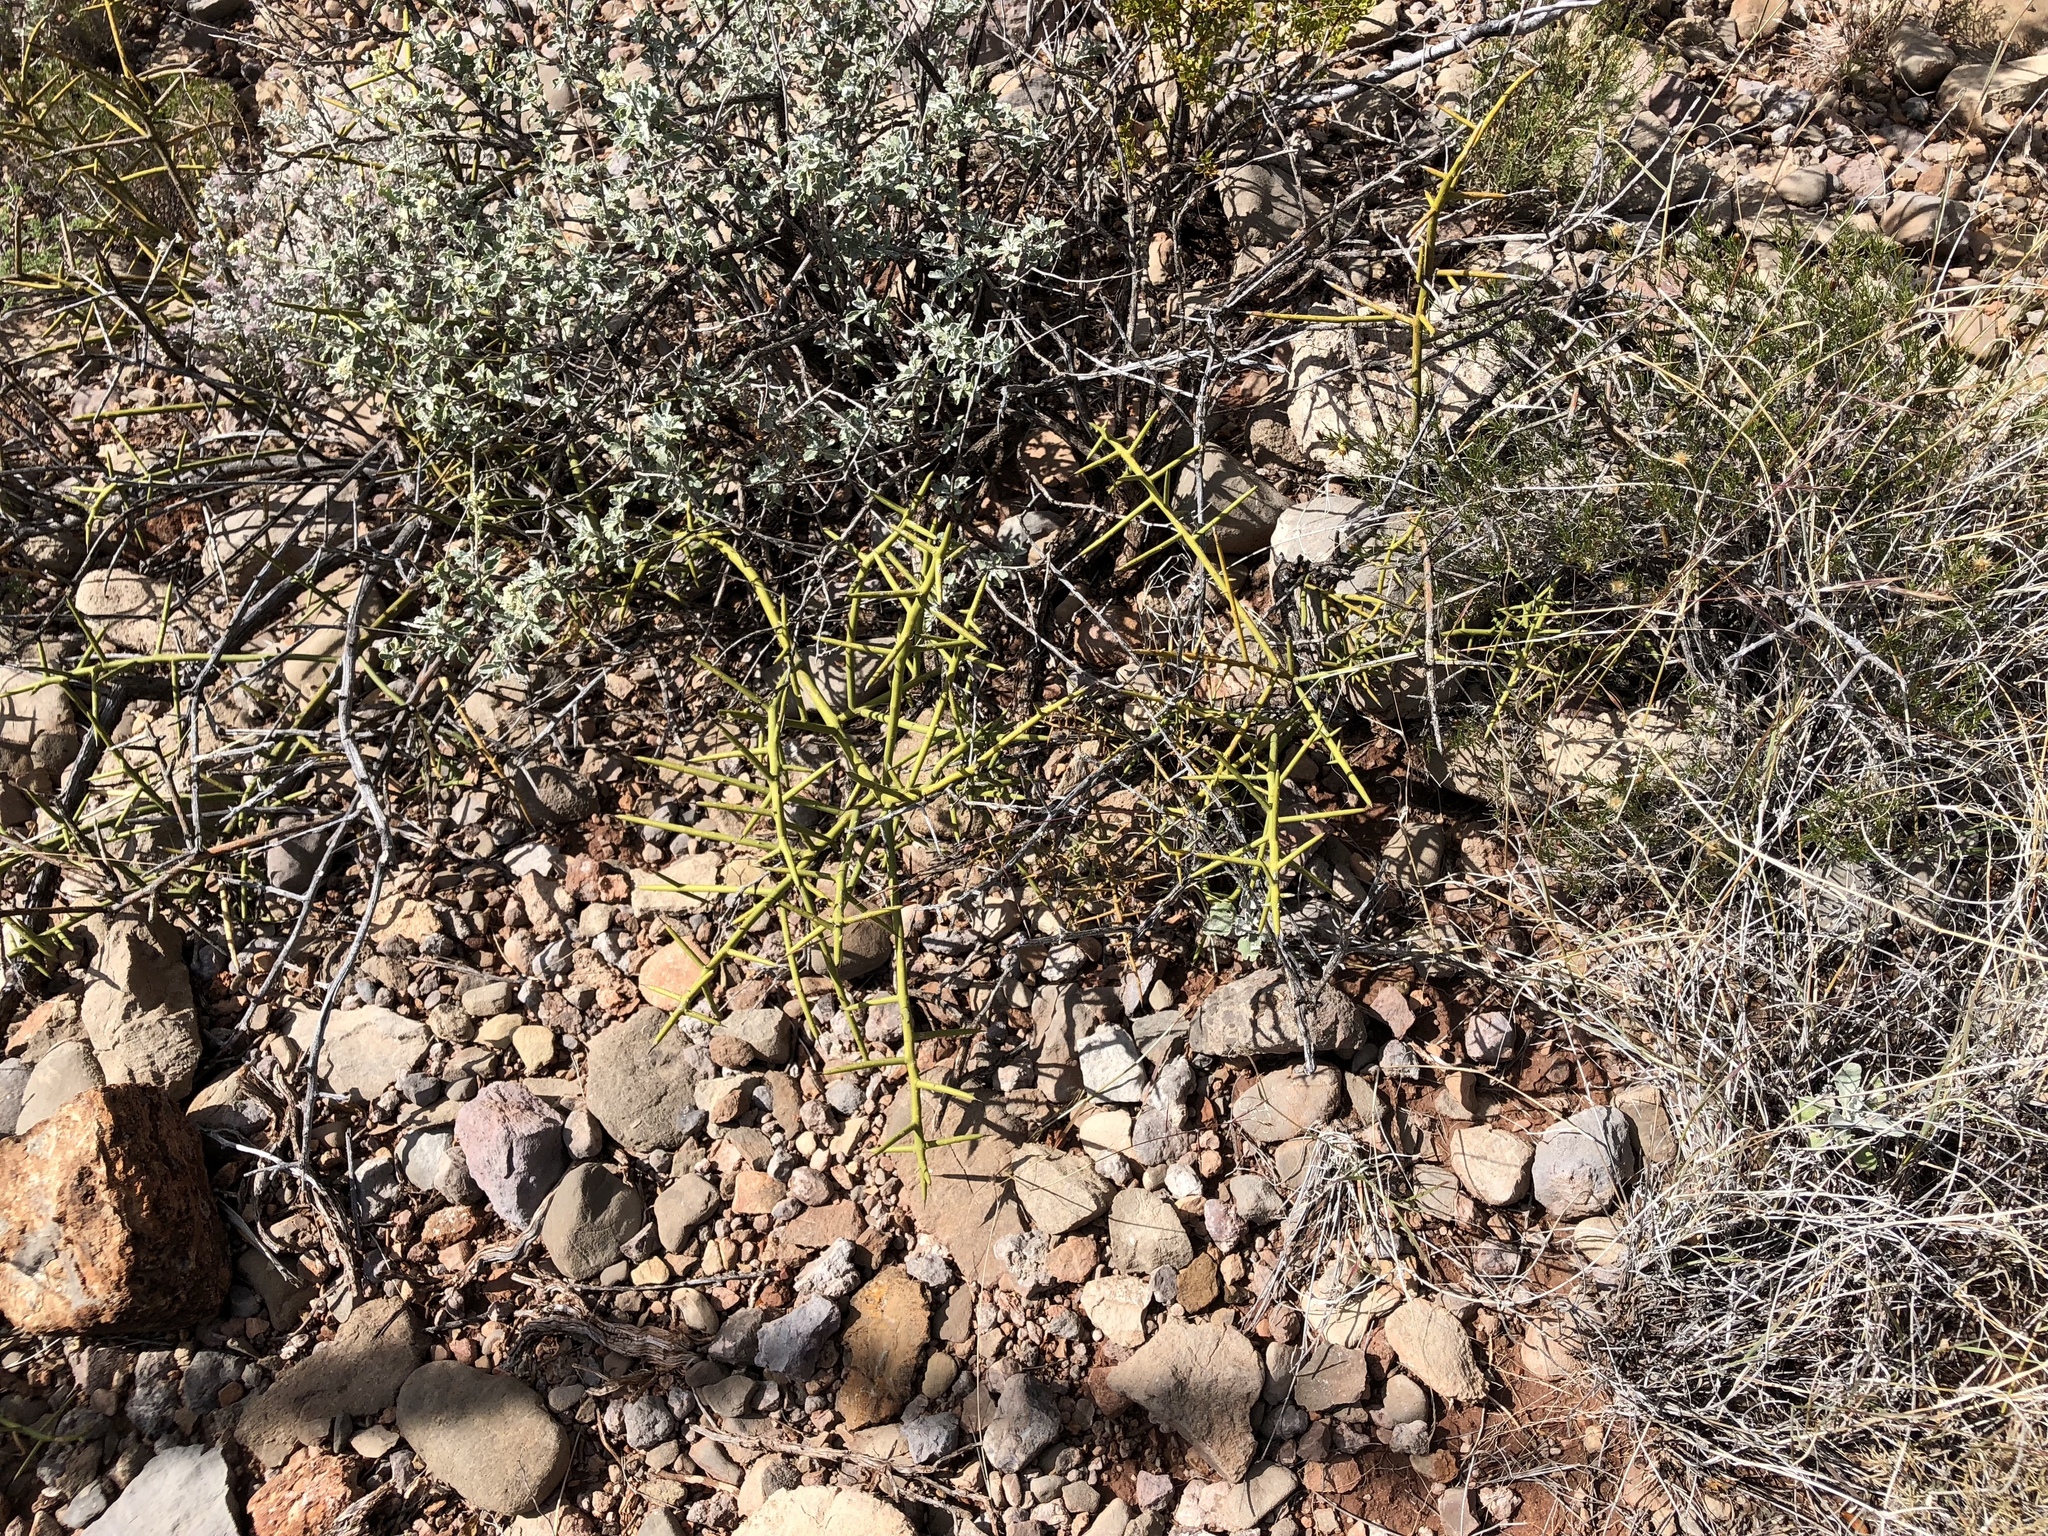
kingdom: Plantae
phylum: Tracheophyta
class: Magnoliopsida
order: Brassicales
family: Koeberliniaceae
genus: Koeberlinia
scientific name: Koeberlinia spinosa
